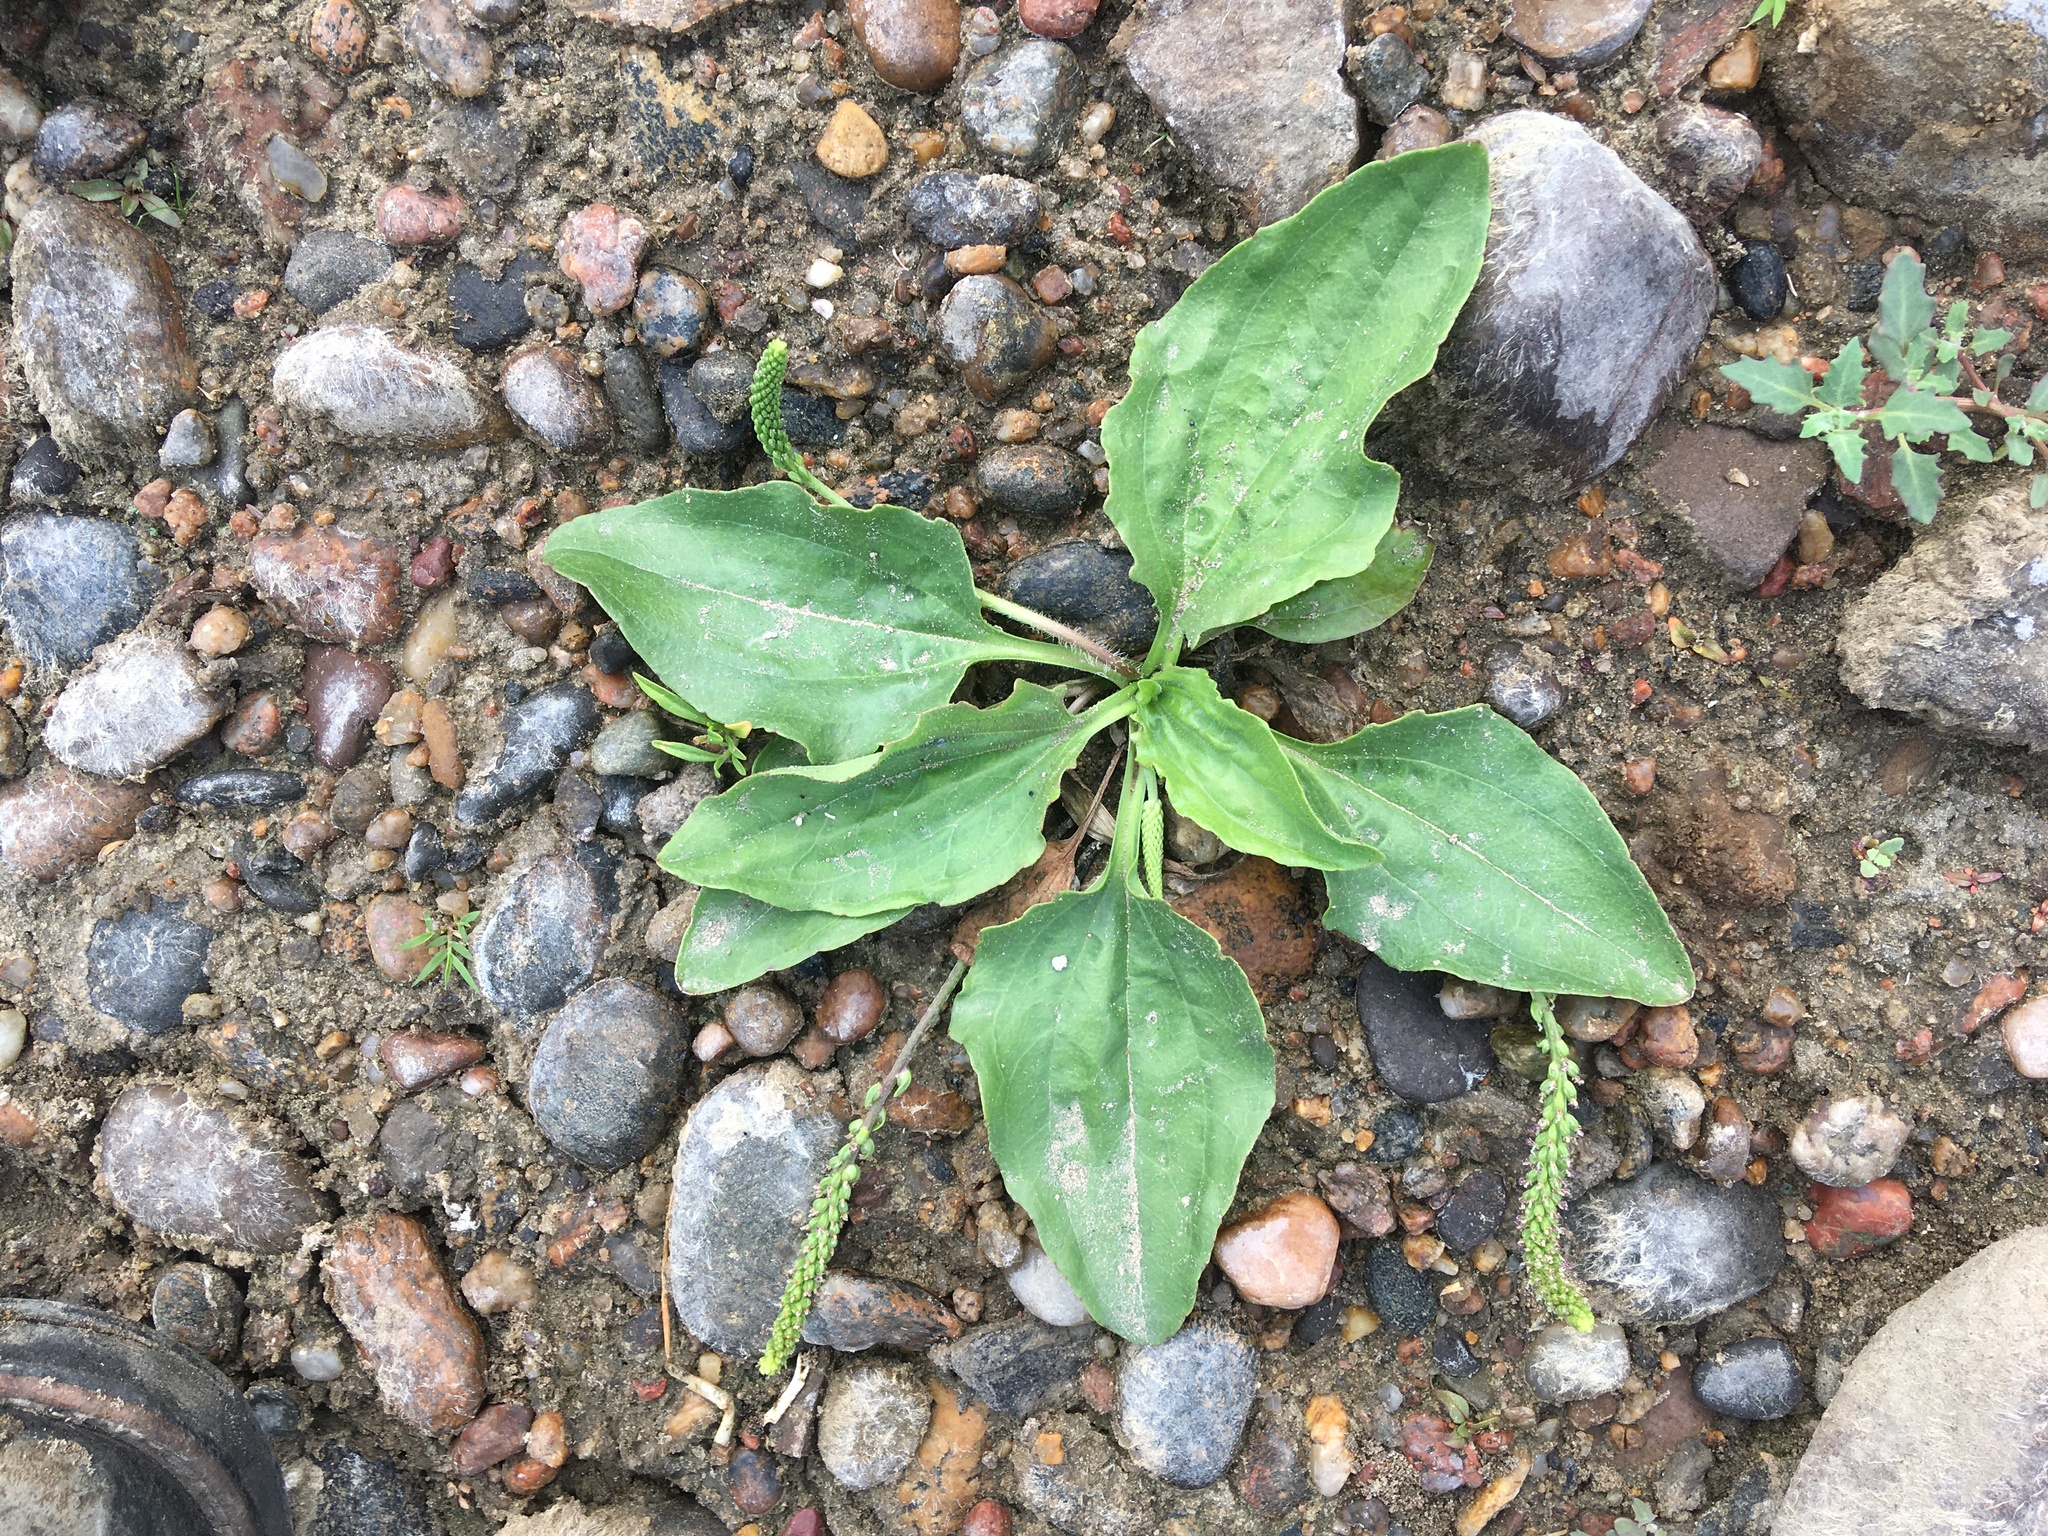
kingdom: Plantae
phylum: Tracheophyta
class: Magnoliopsida
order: Lamiales
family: Plantaginaceae
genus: Plantago
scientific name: Plantago major
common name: Common plantain
